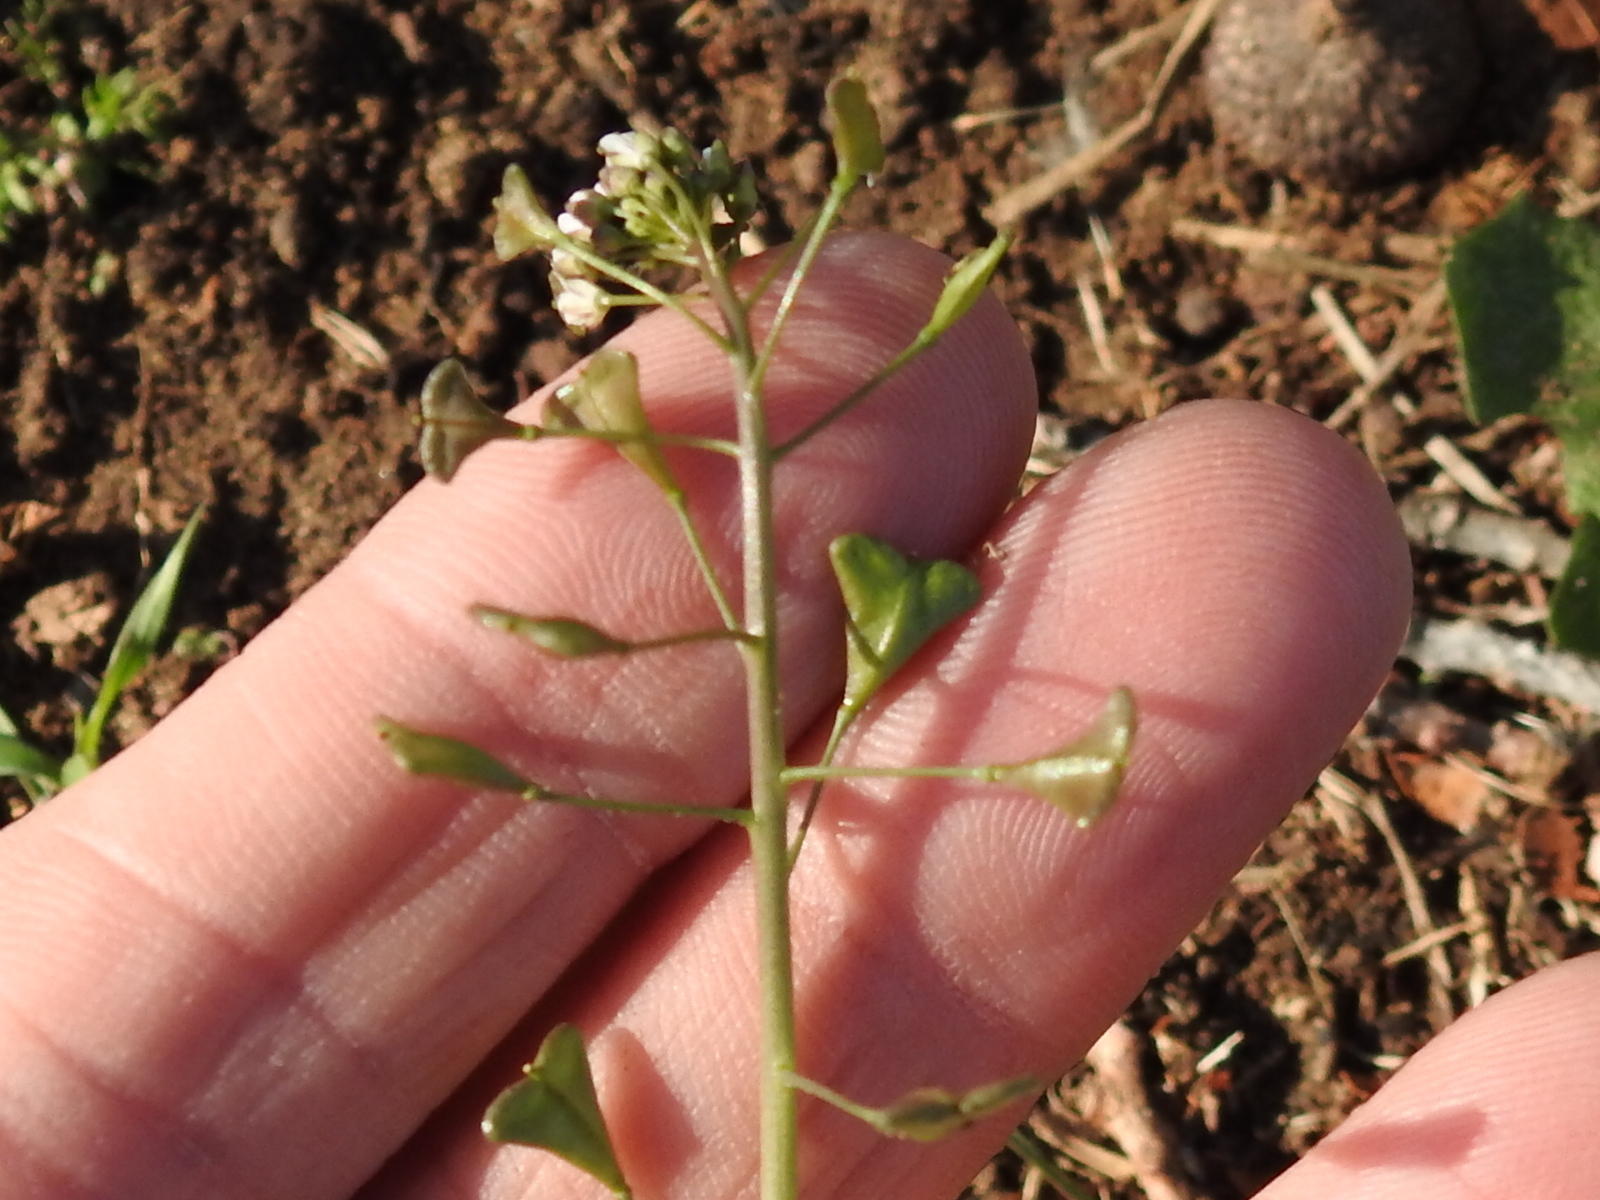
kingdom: Plantae
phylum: Tracheophyta
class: Magnoliopsida
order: Brassicales
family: Brassicaceae
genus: Capsella
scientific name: Capsella bursa-pastoris
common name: Shepherd's purse
